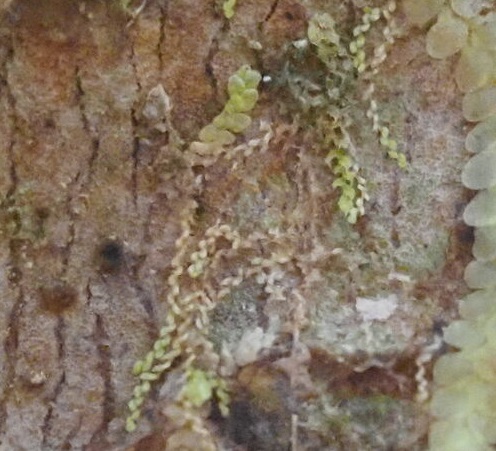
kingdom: Plantae
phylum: Marchantiophyta
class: Jungermanniopsida
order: Porellales
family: Lejeuneaceae
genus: Microlejeunea
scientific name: Microlejeunea lunulatiloba
